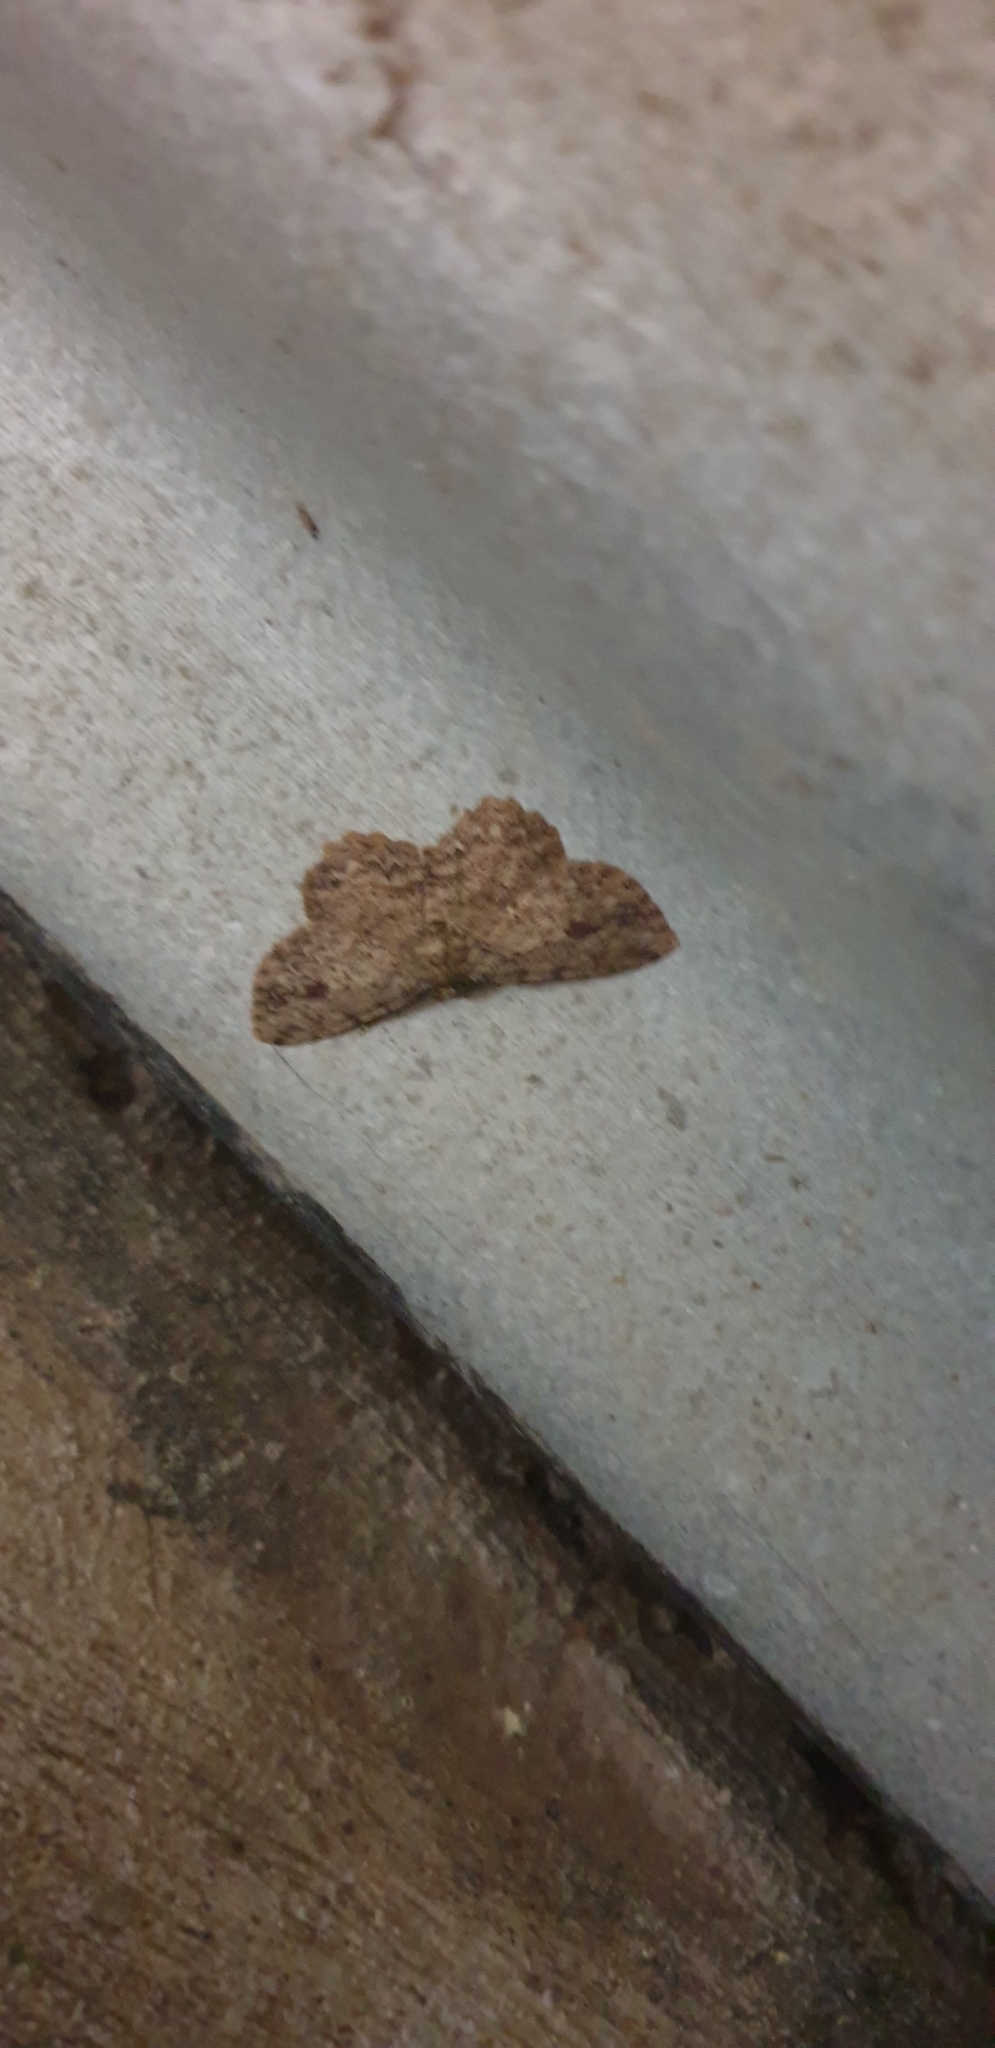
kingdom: Animalia
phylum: Arthropoda
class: Insecta
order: Lepidoptera
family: Geometridae
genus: Ectropis
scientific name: Ectropis bispinaria
